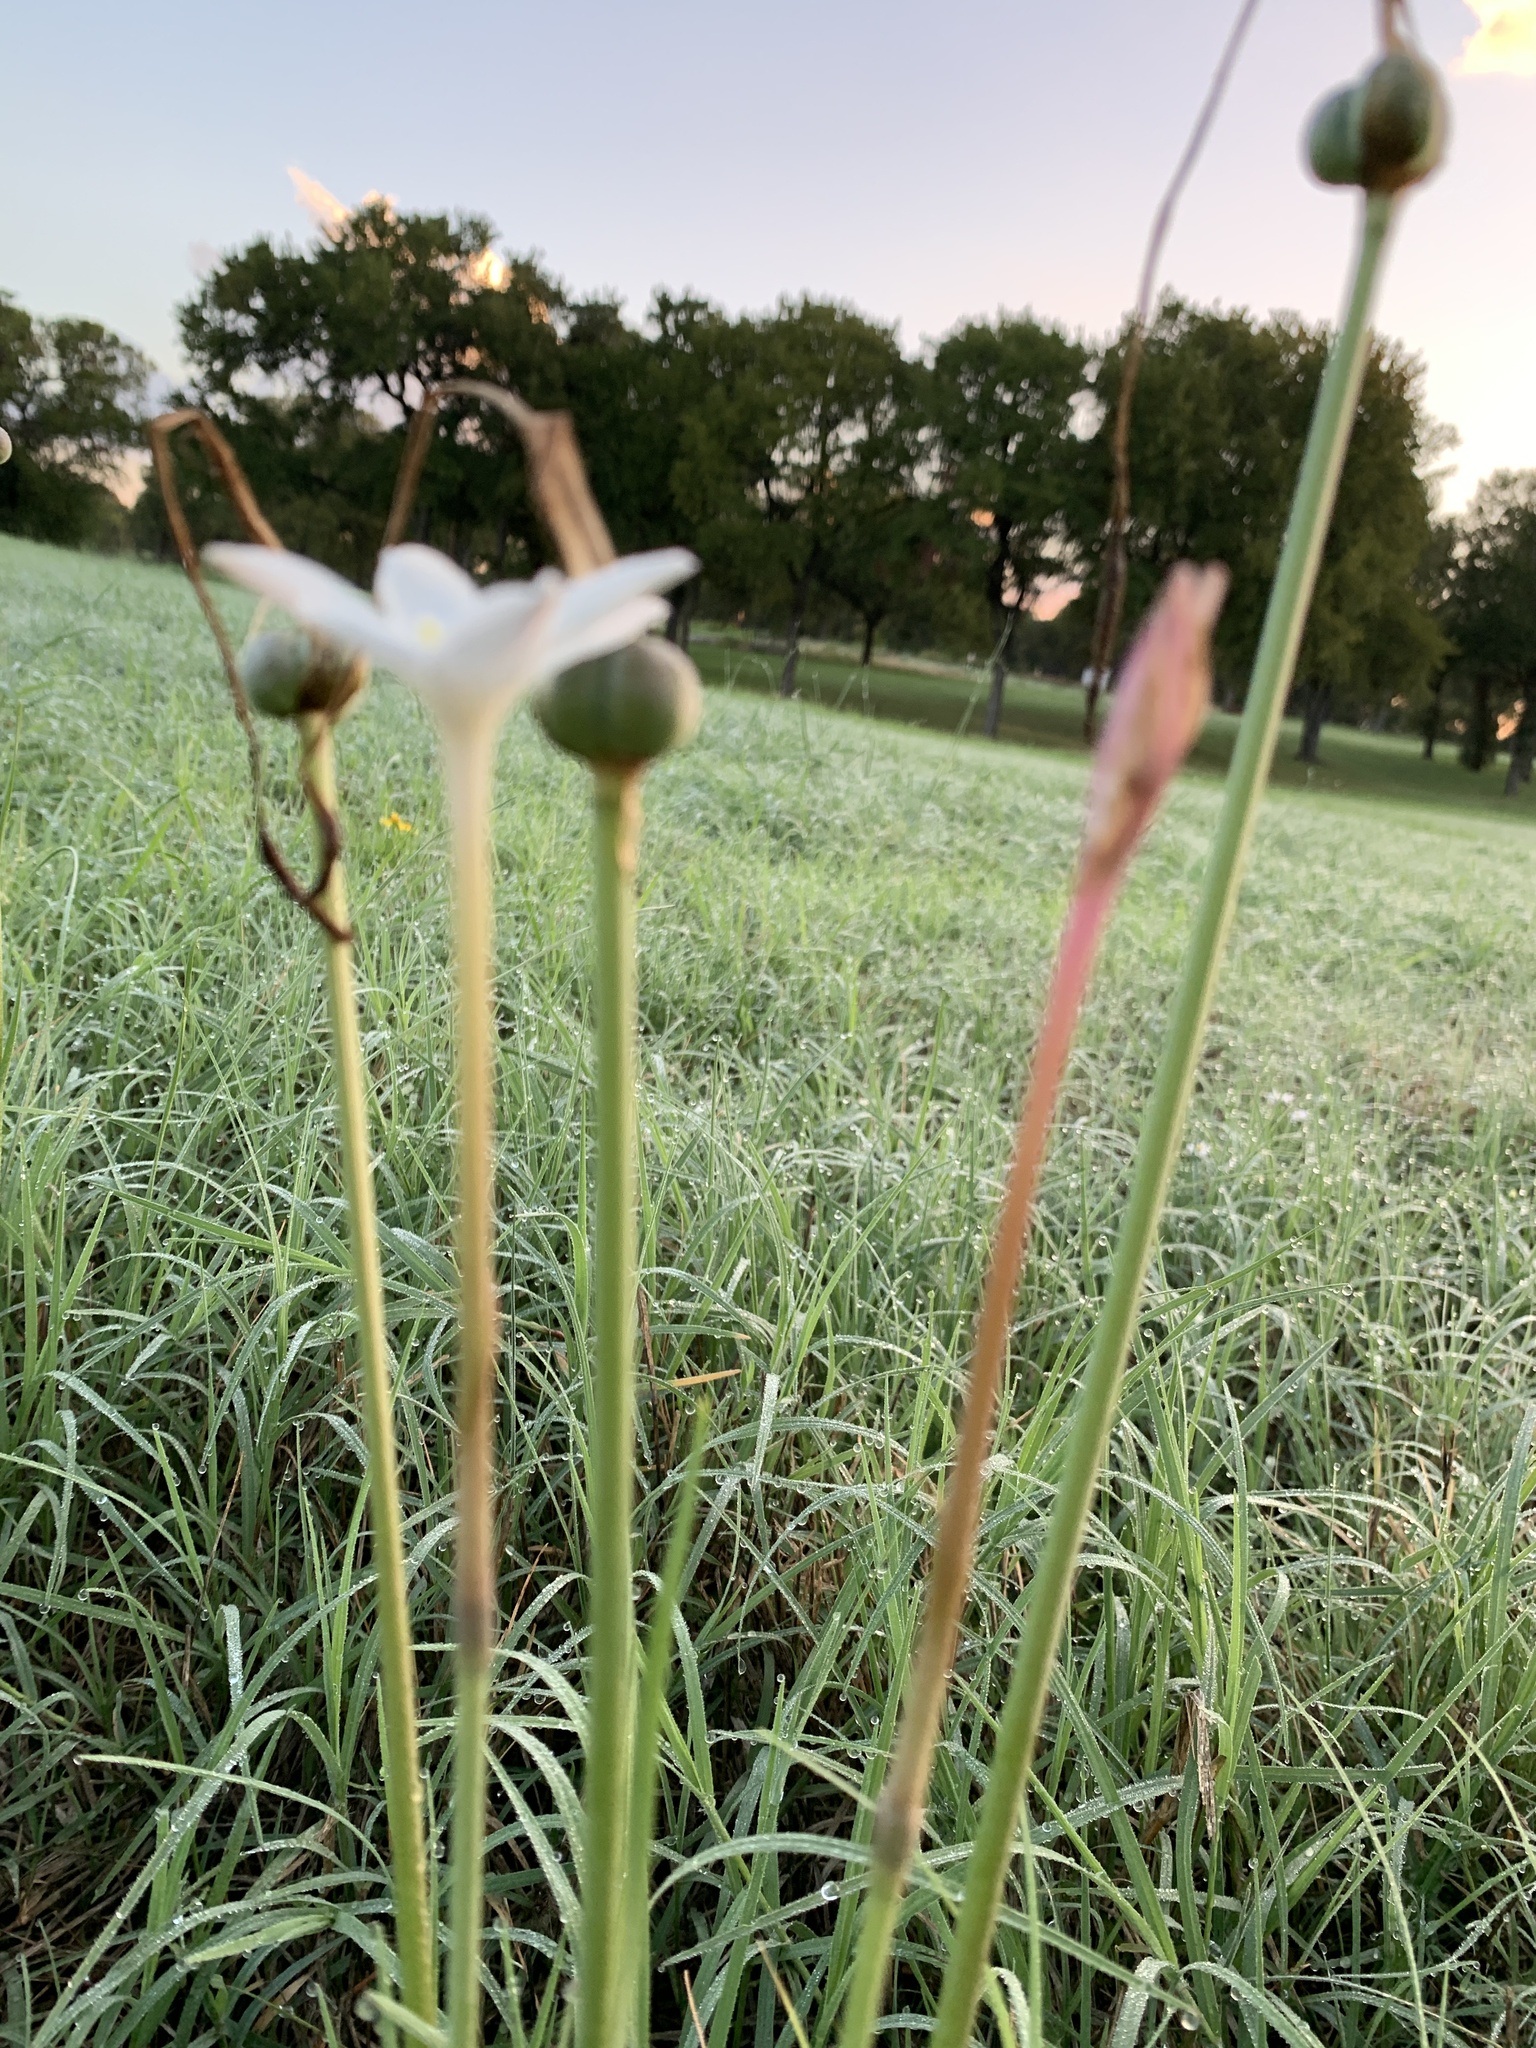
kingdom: Plantae
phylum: Tracheophyta
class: Liliopsida
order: Asparagales
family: Amaryllidaceae
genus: Zephyranthes
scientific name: Zephyranthes chlorosolen
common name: Evening rain-lily
